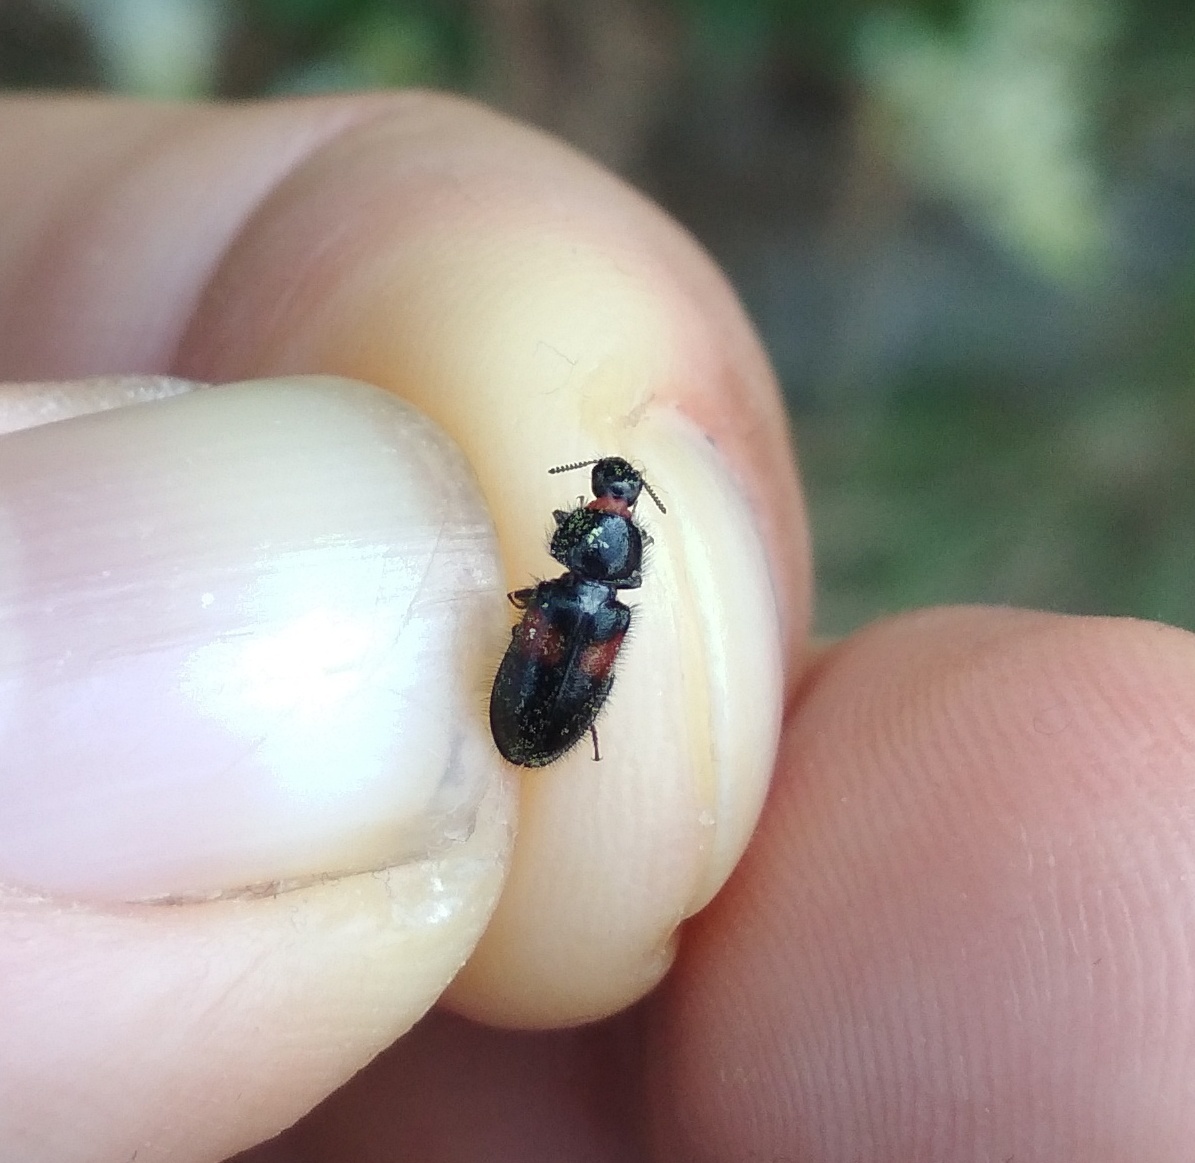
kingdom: Animalia
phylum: Arthropoda
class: Insecta
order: Coleoptera
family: Melyridae
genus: Divales
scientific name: Divales bipustulatus
